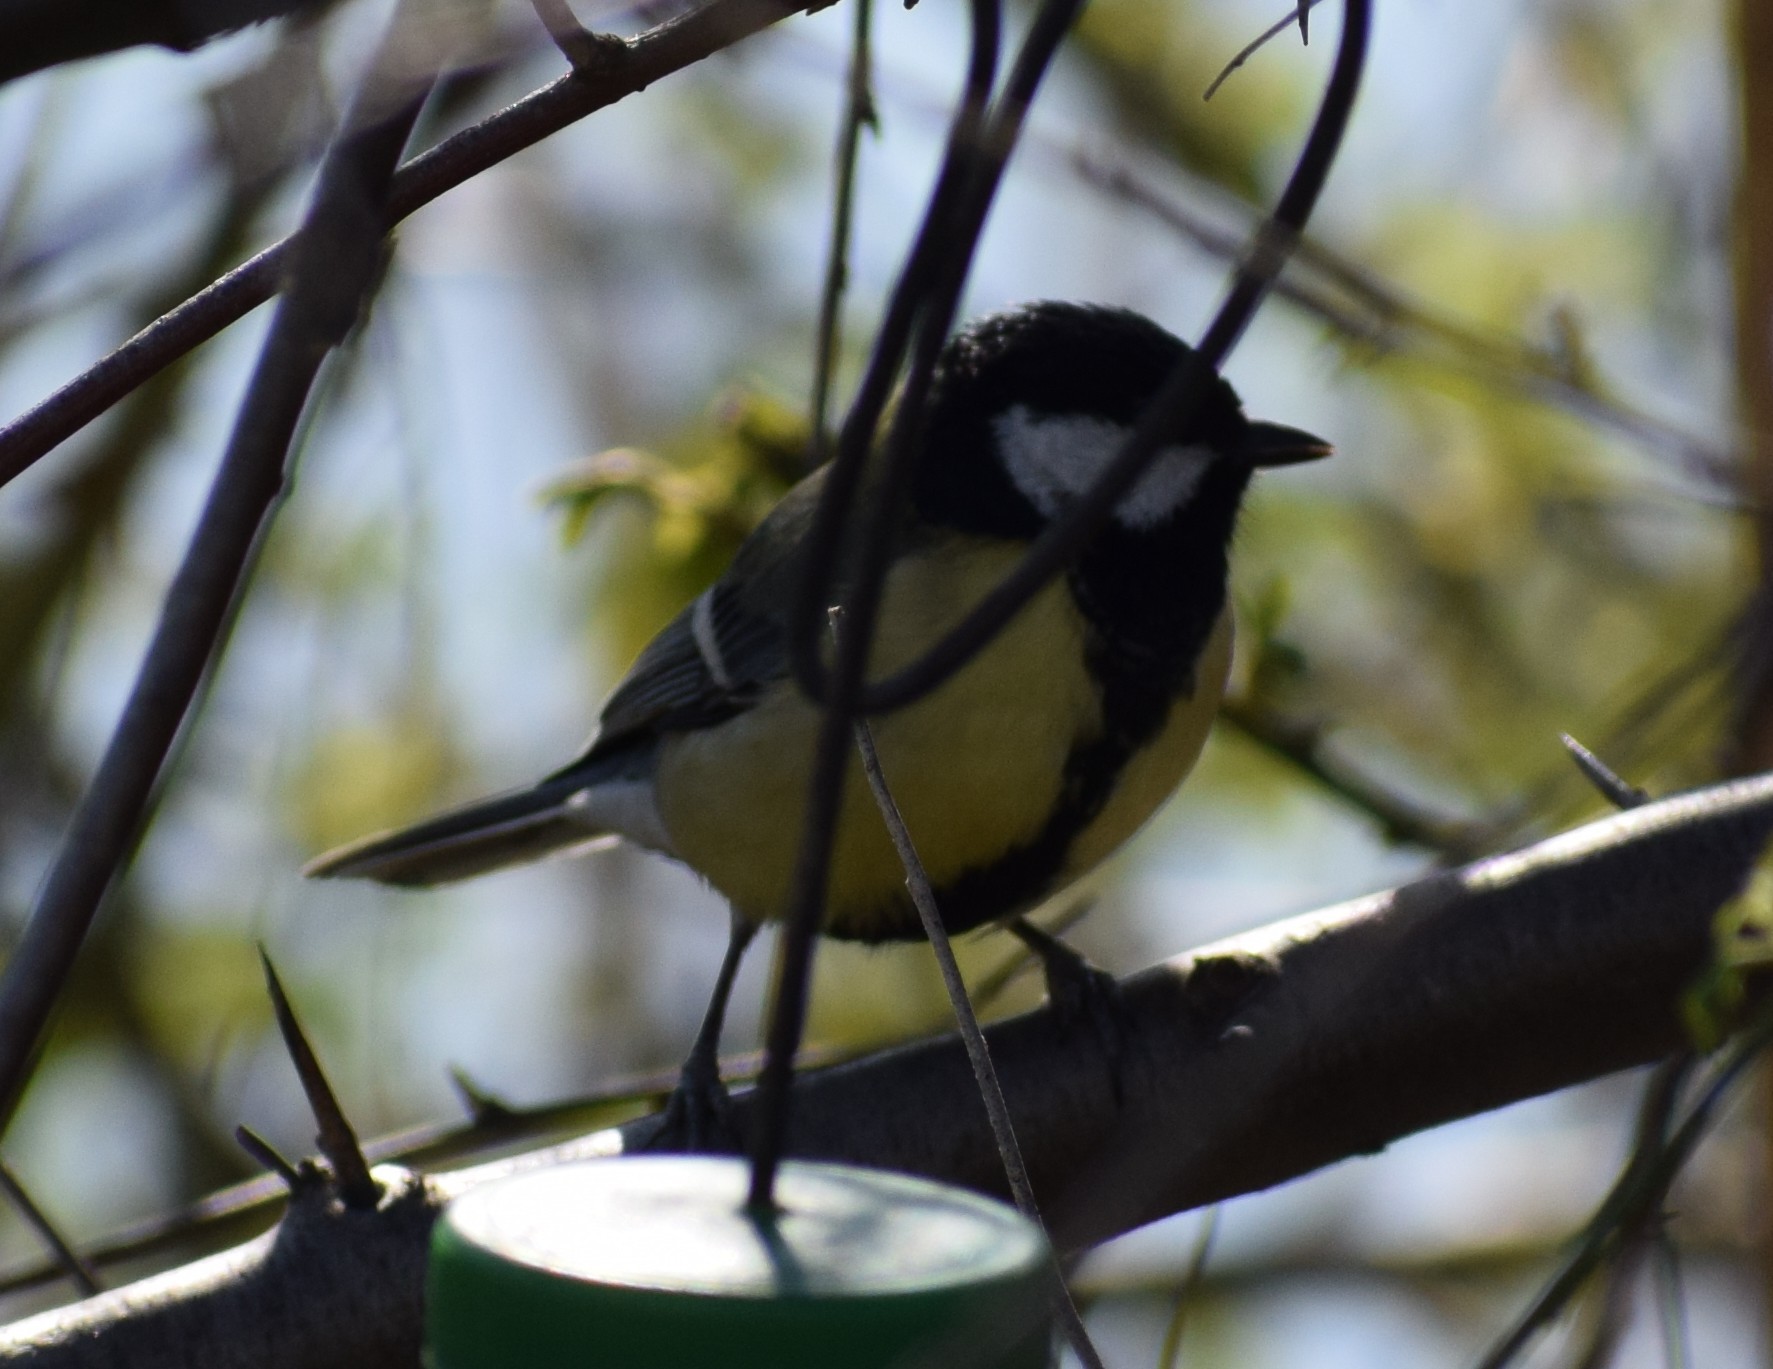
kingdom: Animalia
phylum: Chordata
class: Aves
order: Passeriformes
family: Paridae
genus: Parus
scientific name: Parus major
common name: Great tit
